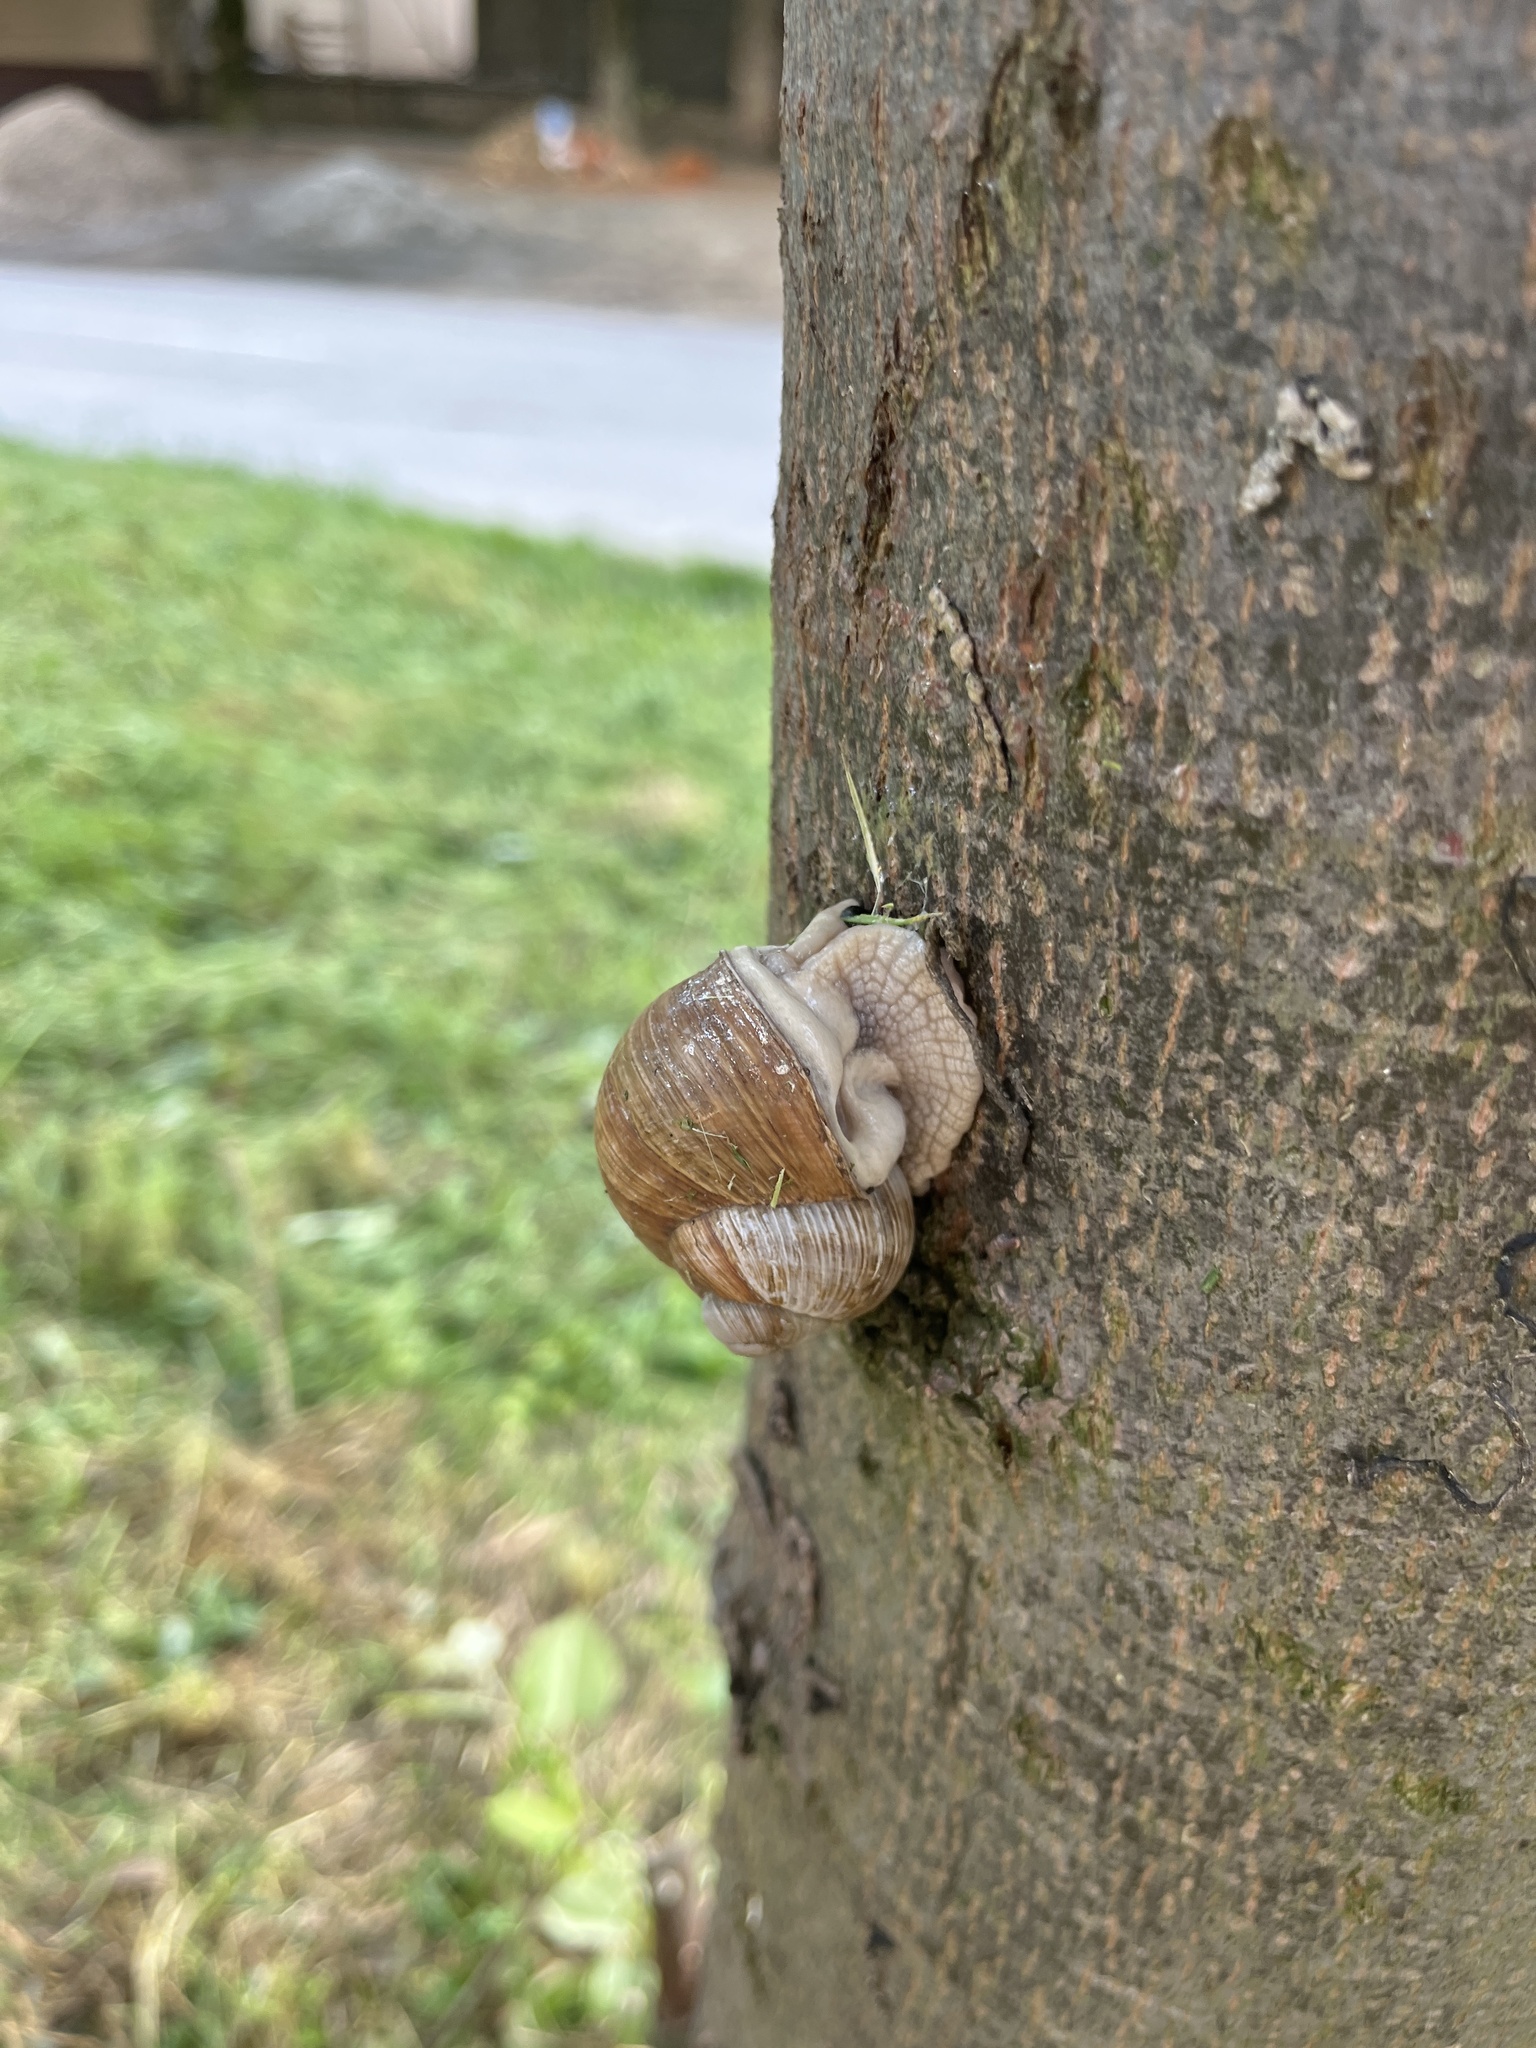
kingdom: Animalia
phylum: Mollusca
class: Gastropoda
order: Stylommatophora
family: Helicidae
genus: Helix
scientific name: Helix pomatia
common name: Roman snail
